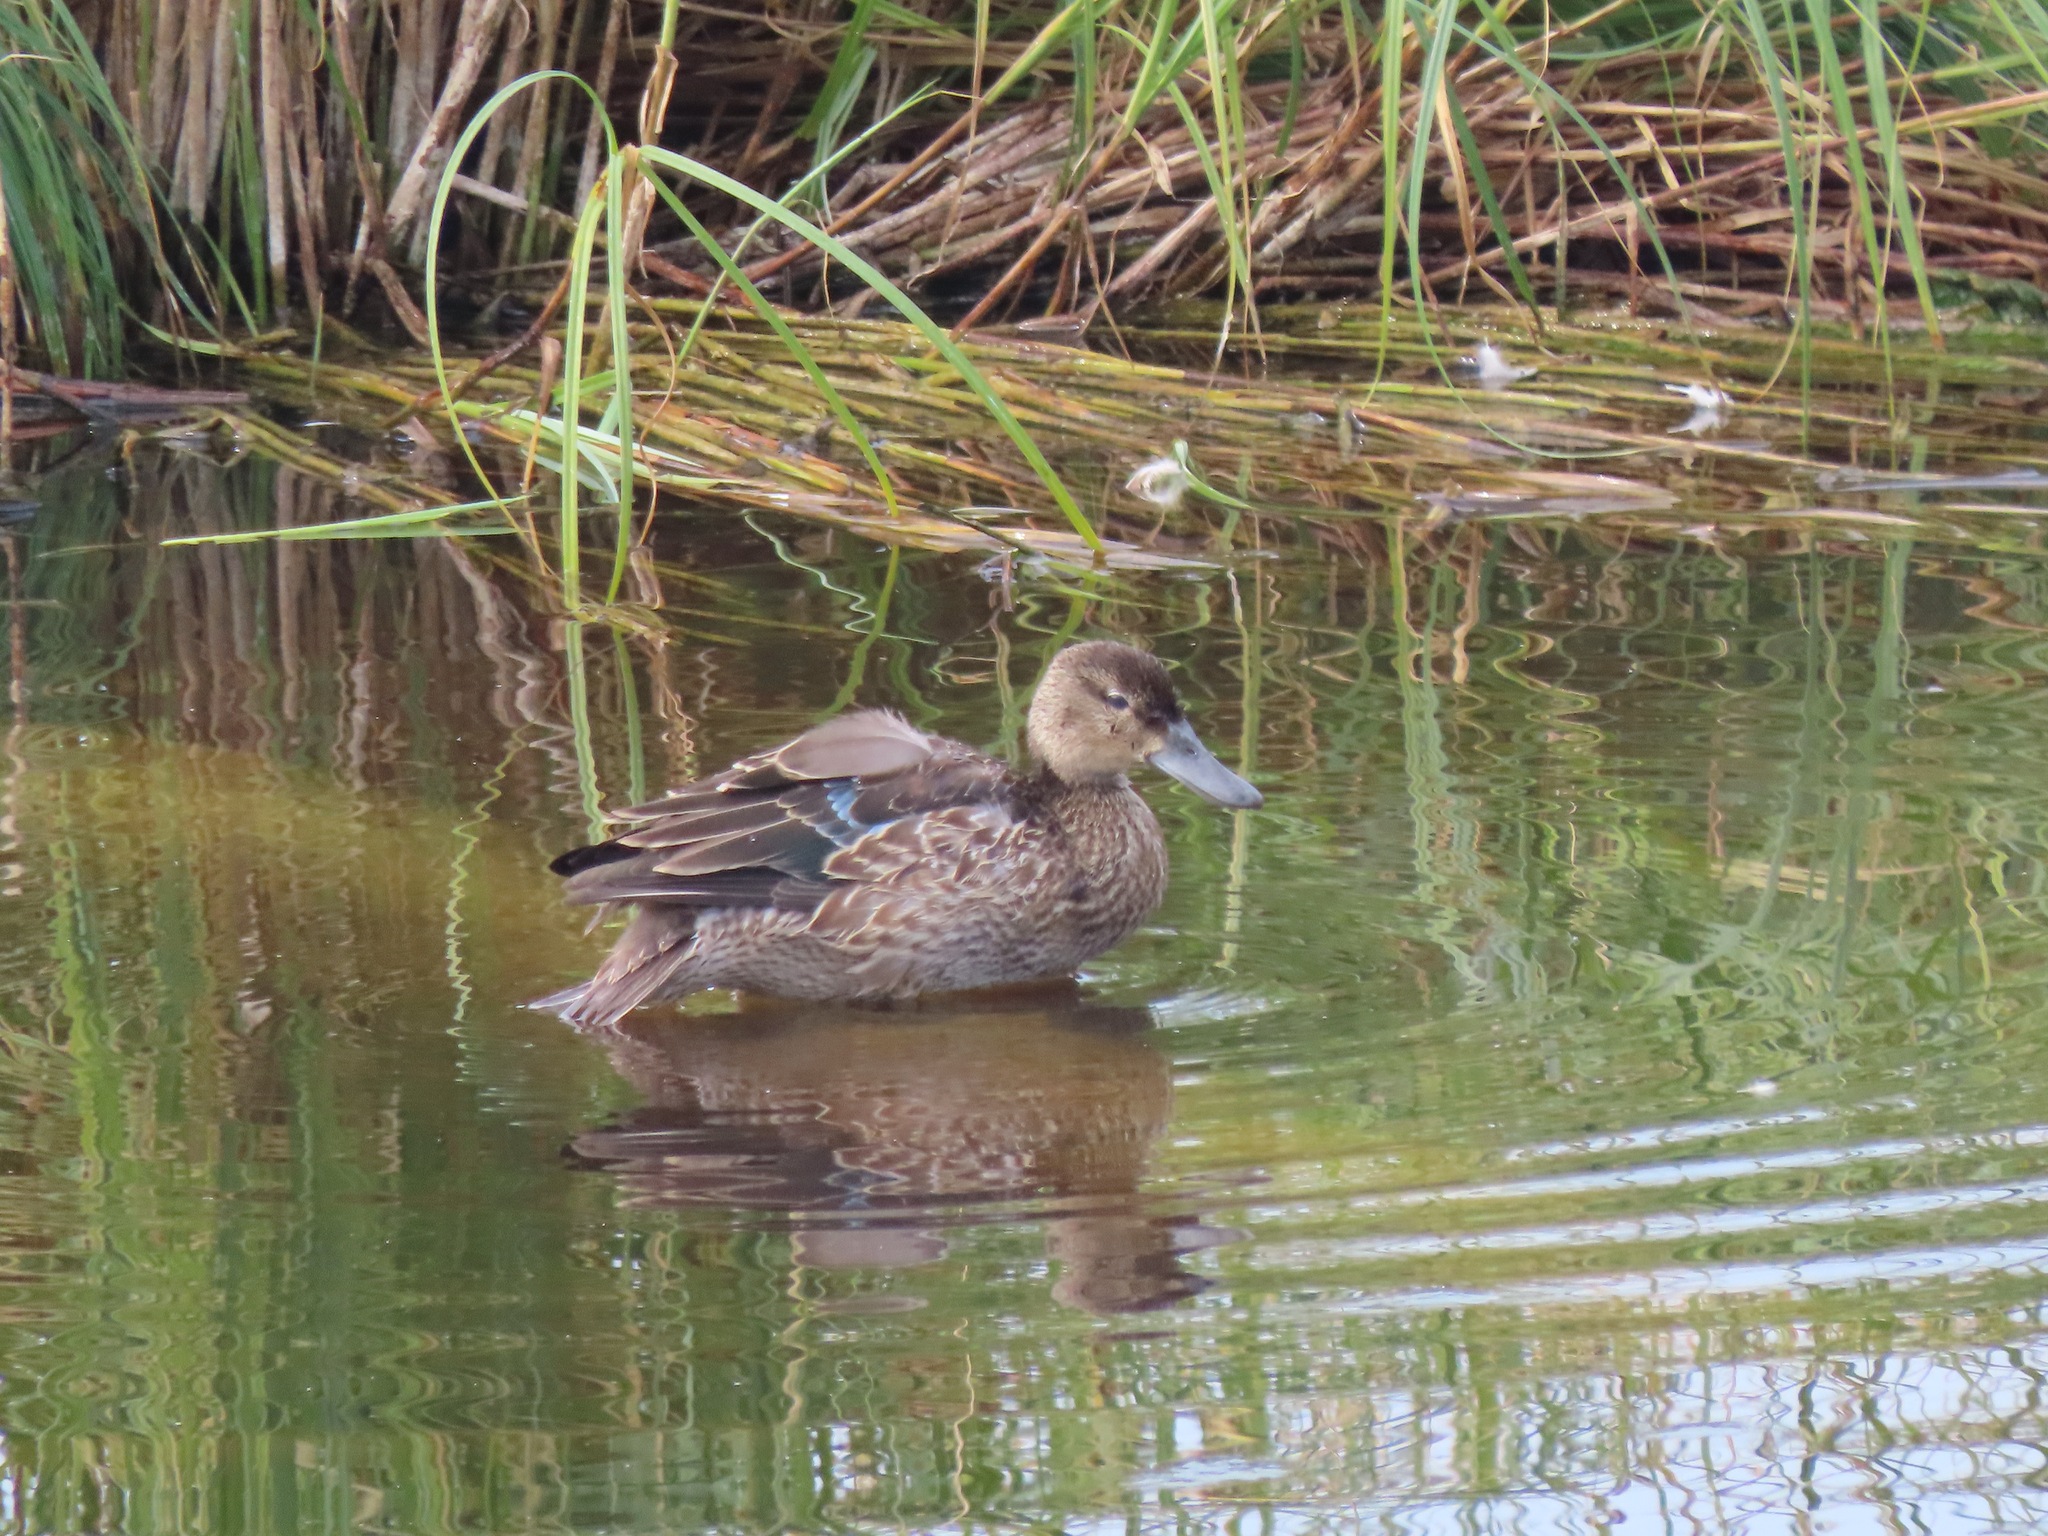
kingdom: Animalia
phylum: Chordata
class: Aves
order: Anseriformes
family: Anatidae
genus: Spatula
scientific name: Spatula discors
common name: Blue-winged teal
